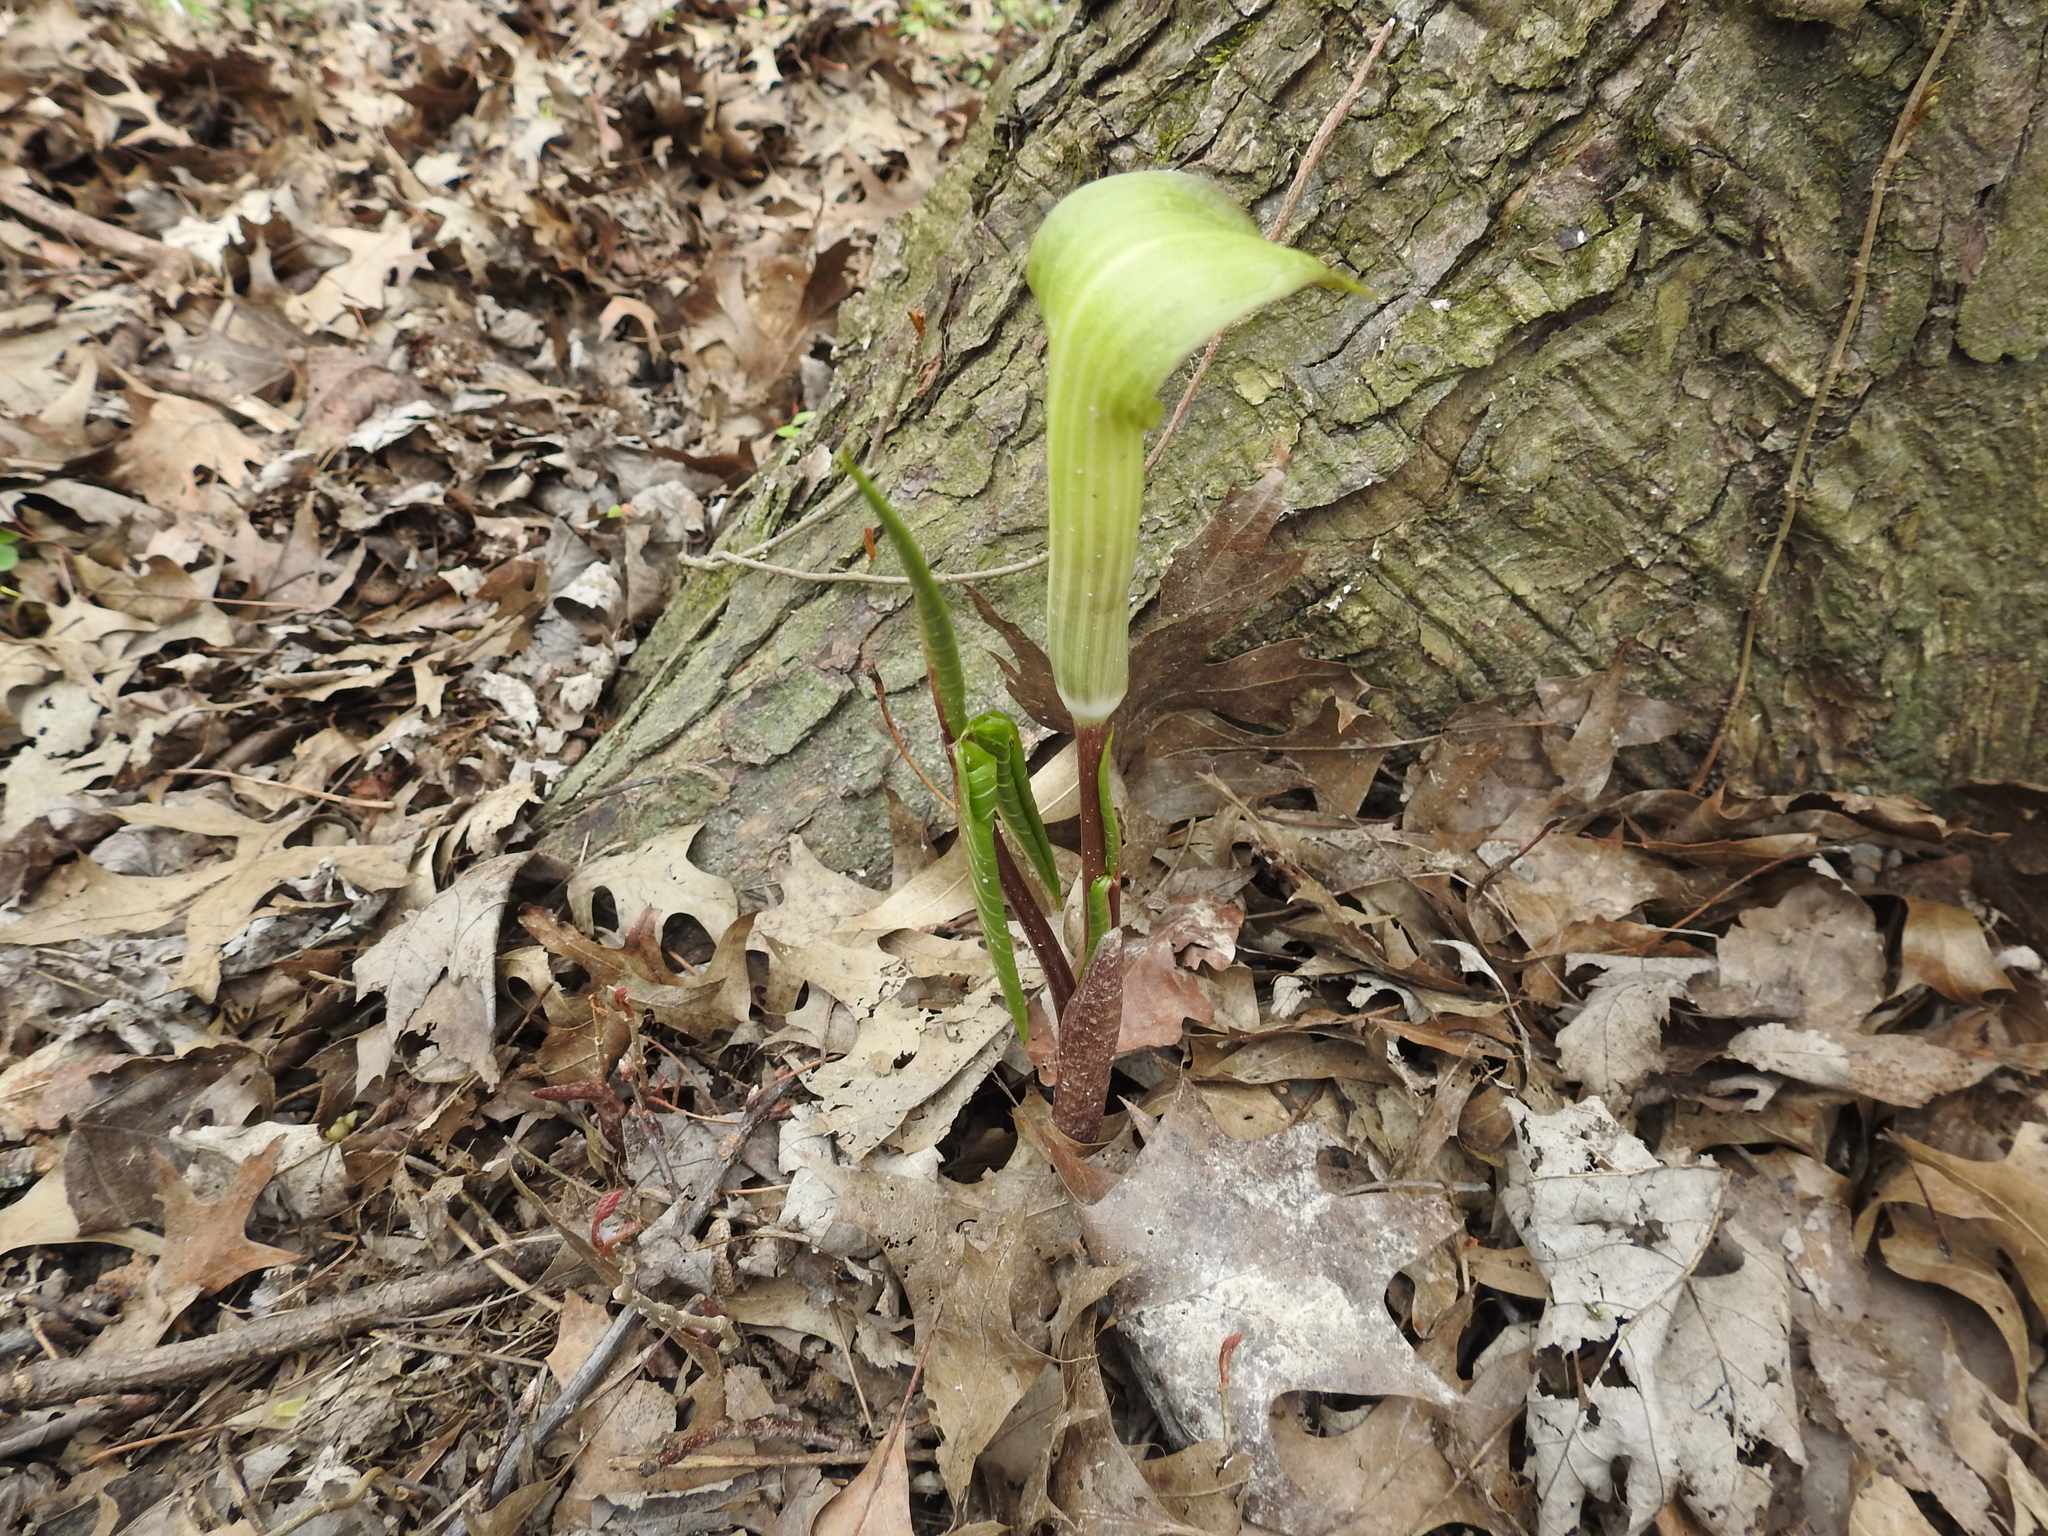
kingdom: Plantae
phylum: Tracheophyta
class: Liliopsida
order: Alismatales
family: Araceae
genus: Arisaema
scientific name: Arisaema triphyllum
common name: Jack-in-the-pulpit
